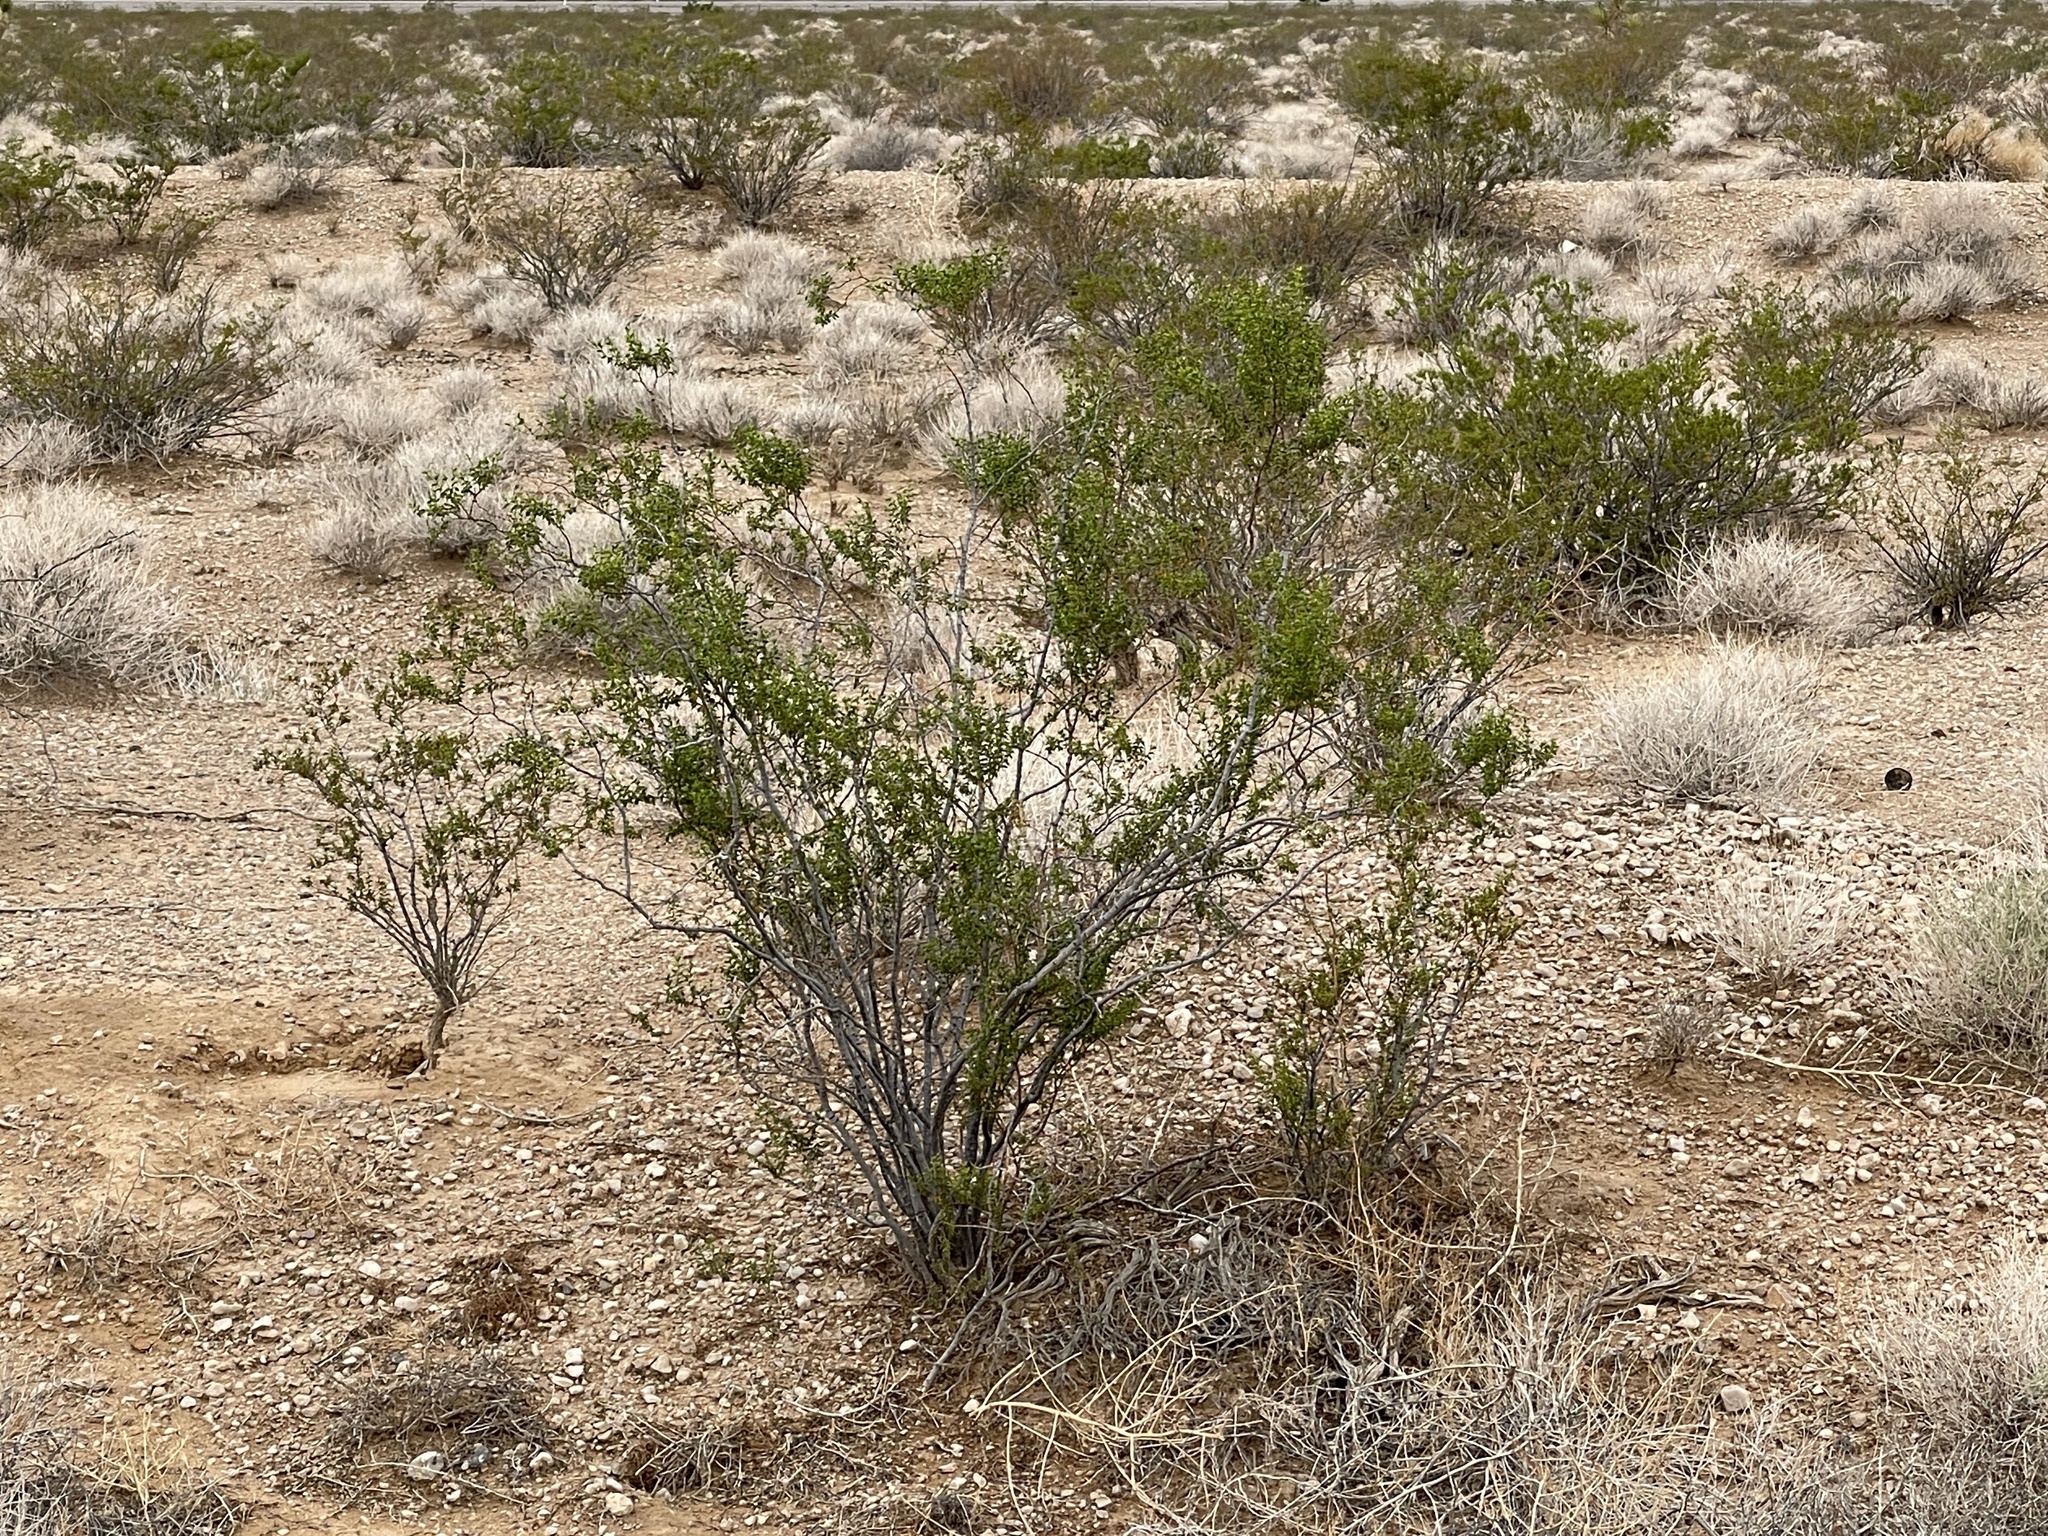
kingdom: Plantae
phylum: Tracheophyta
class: Magnoliopsida
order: Zygophyllales
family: Zygophyllaceae
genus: Larrea
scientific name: Larrea tridentata
